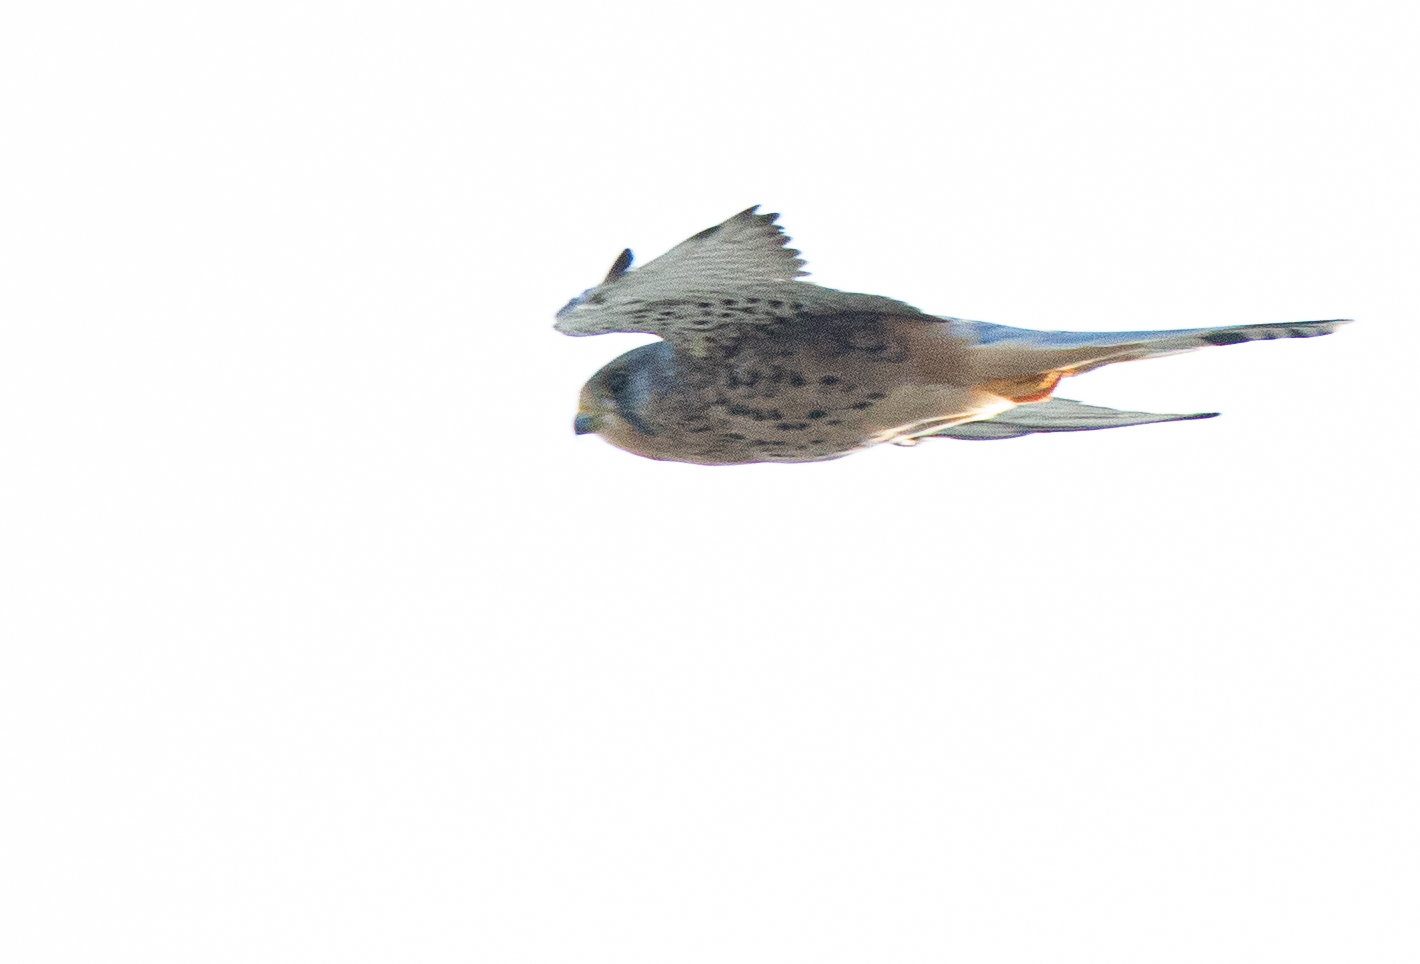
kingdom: Animalia
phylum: Chordata
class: Aves
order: Falconiformes
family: Falconidae
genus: Falco
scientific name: Falco tinnunculus
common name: Common kestrel
